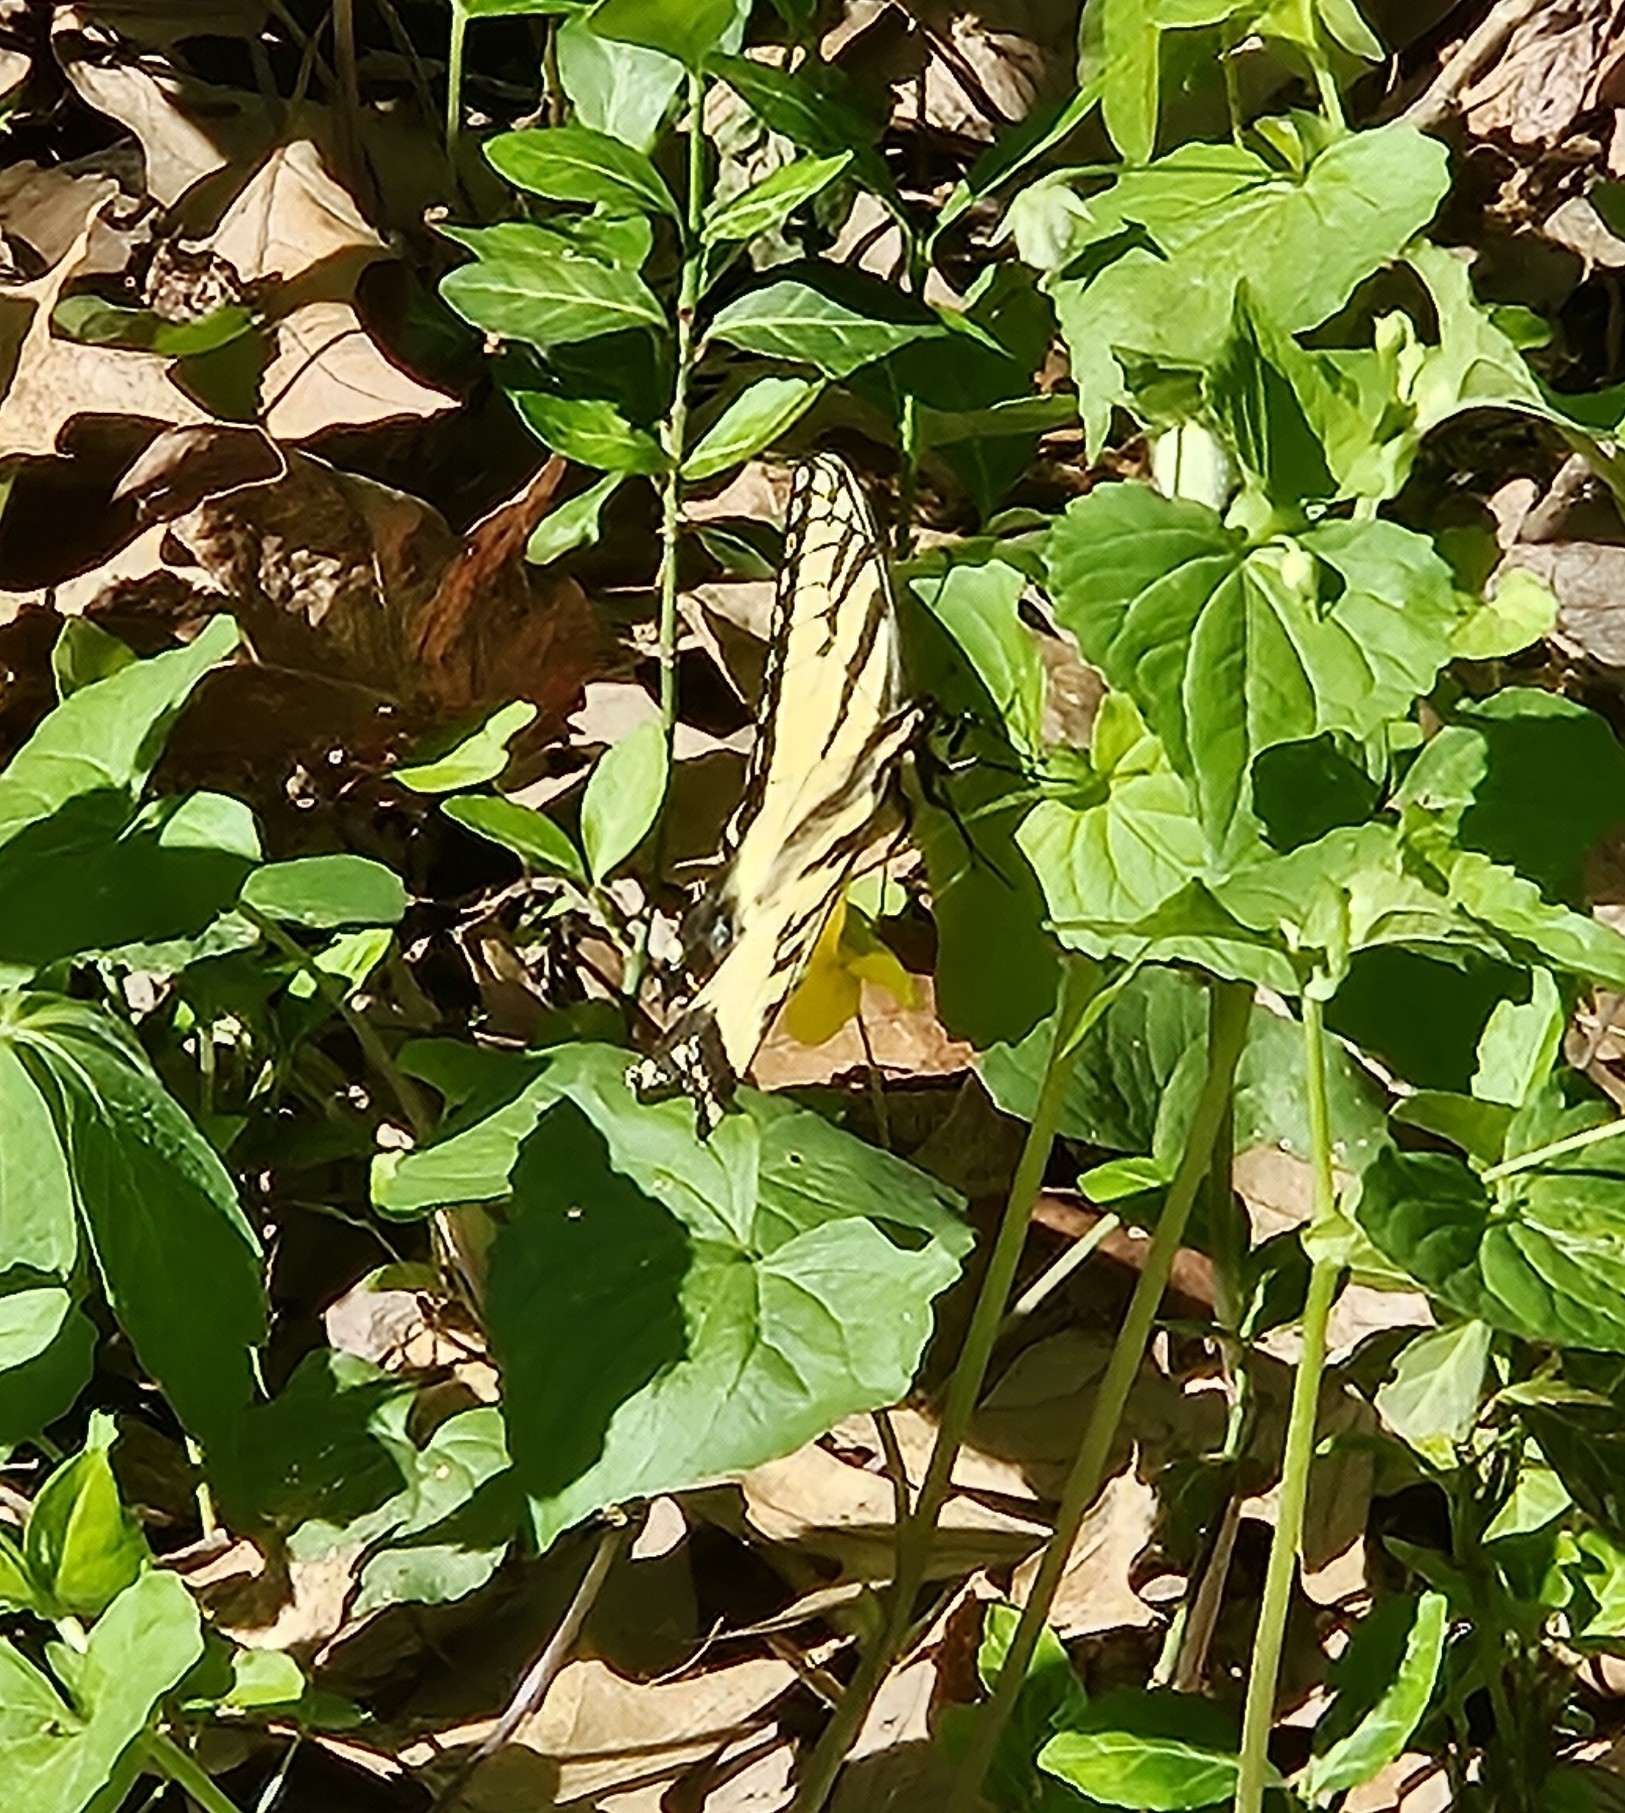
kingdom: Animalia
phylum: Arthropoda
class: Insecta
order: Lepidoptera
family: Papilionidae
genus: Papilio
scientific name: Papilio glaucus
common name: Tiger swallowtail
